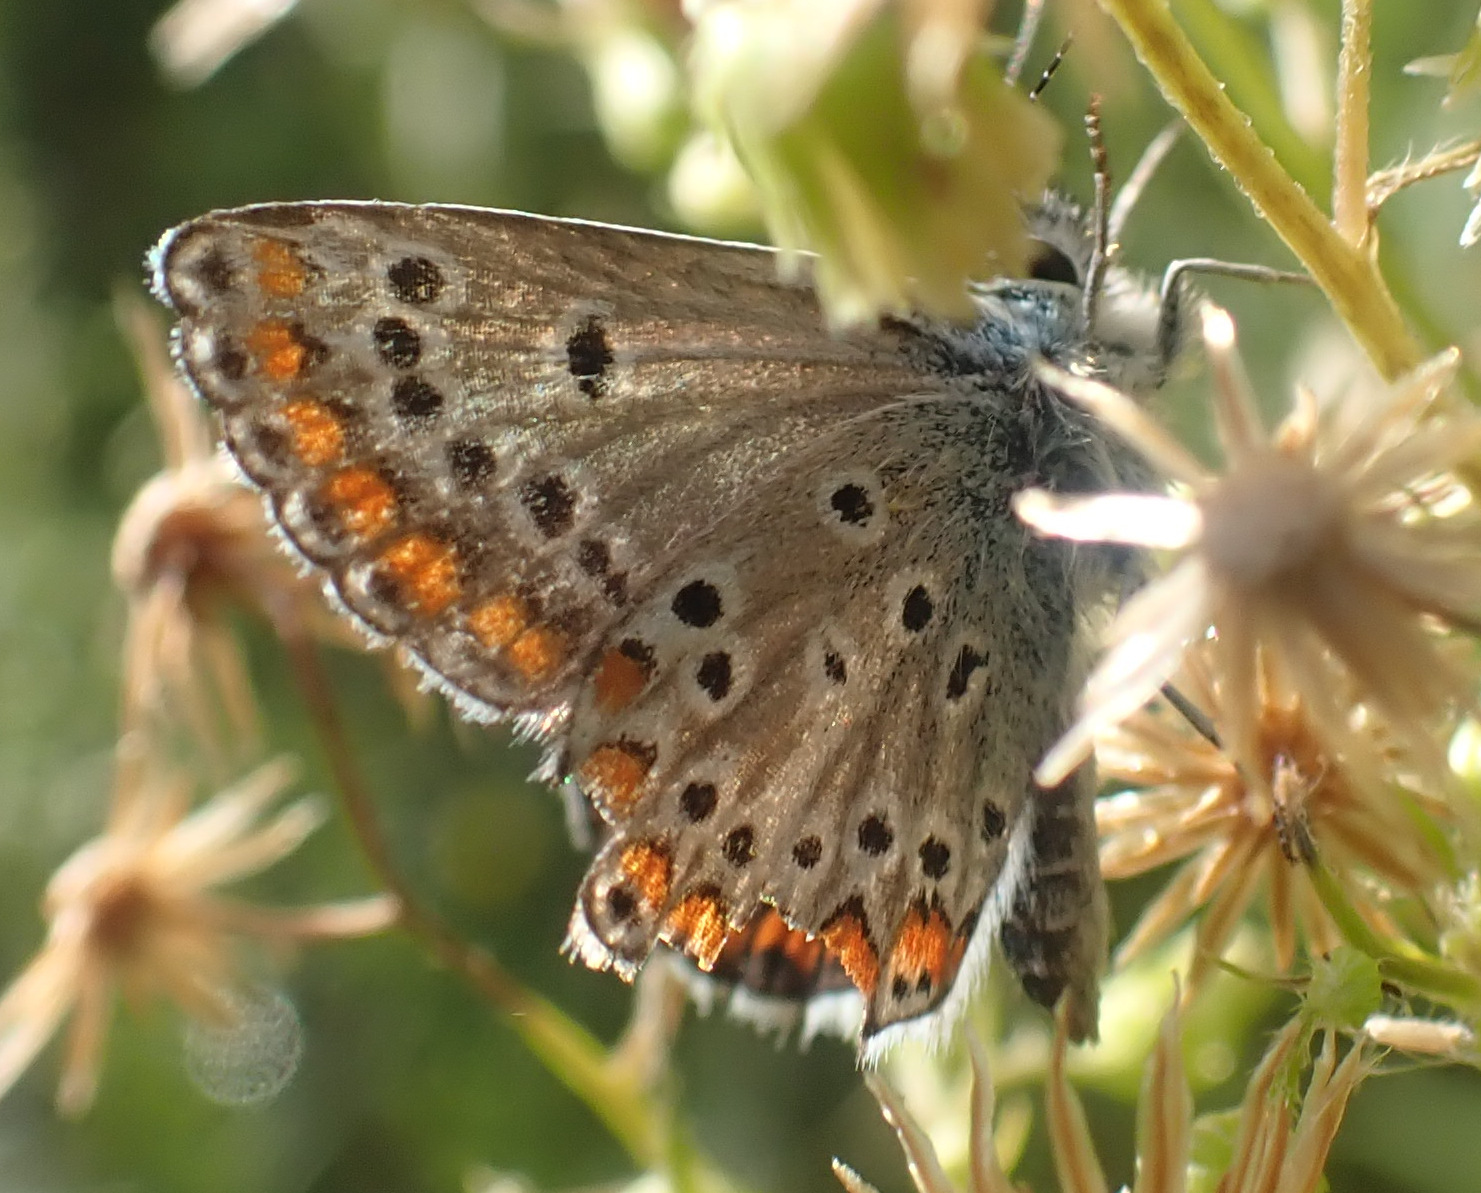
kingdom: Animalia
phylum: Arthropoda
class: Insecta
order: Lepidoptera
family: Lycaenidae
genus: Aricia
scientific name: Aricia agestis
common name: Brown argus
